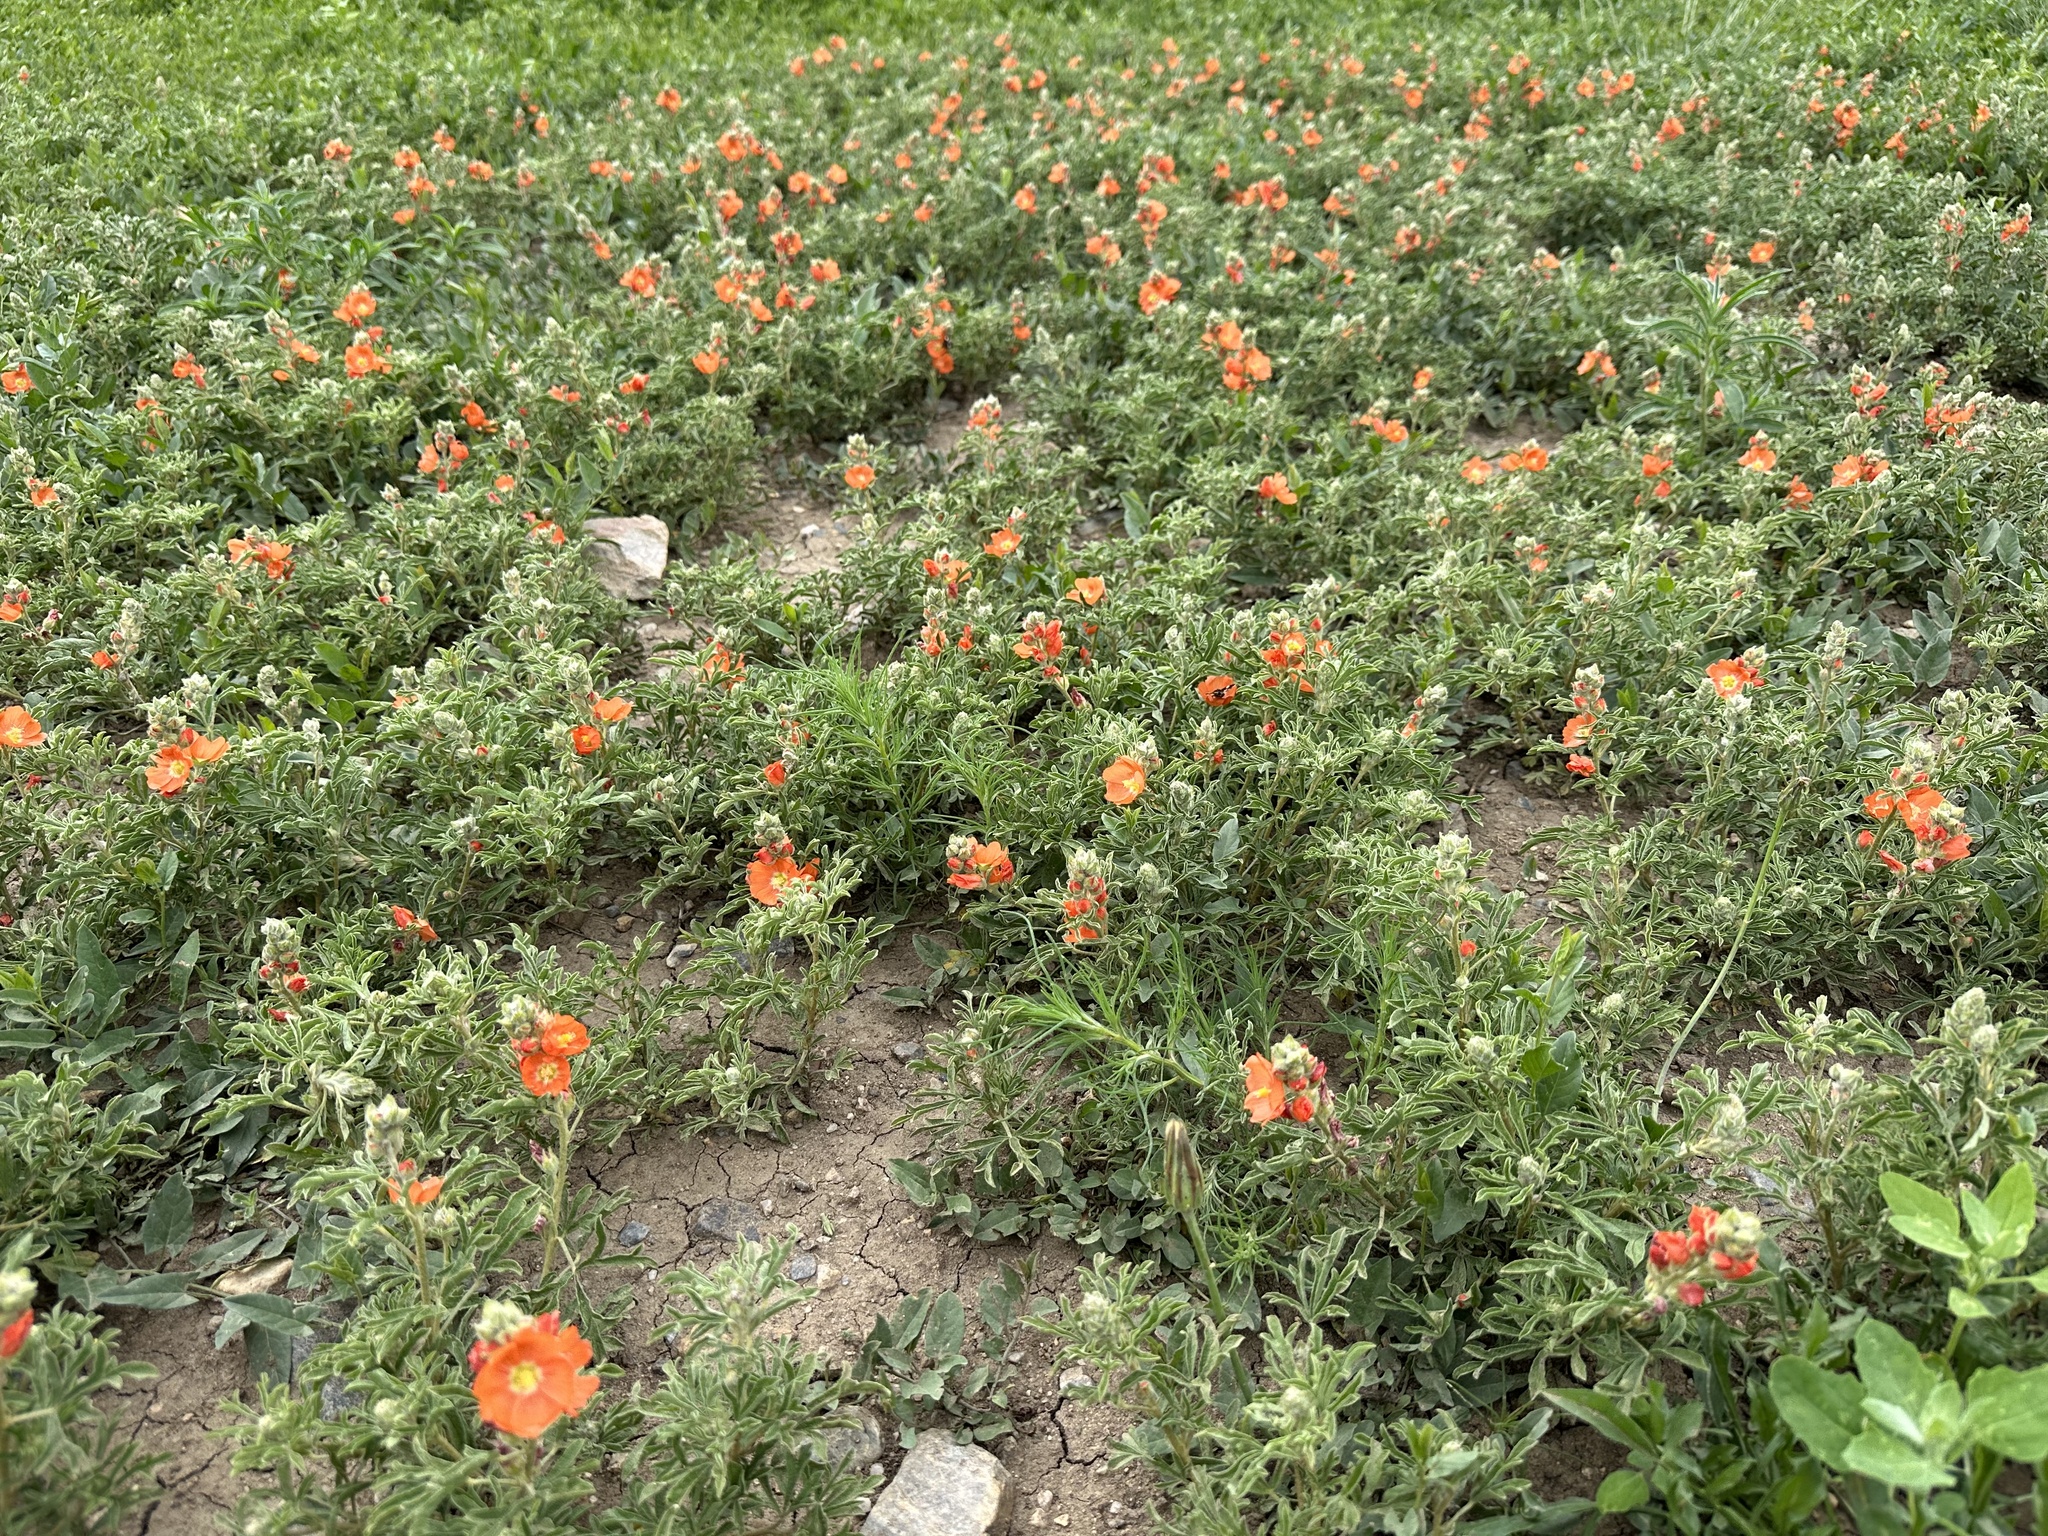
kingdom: Plantae
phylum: Tracheophyta
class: Magnoliopsida
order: Malvales
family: Malvaceae
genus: Sphaeralcea
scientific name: Sphaeralcea coccinea
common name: Moss-rose
